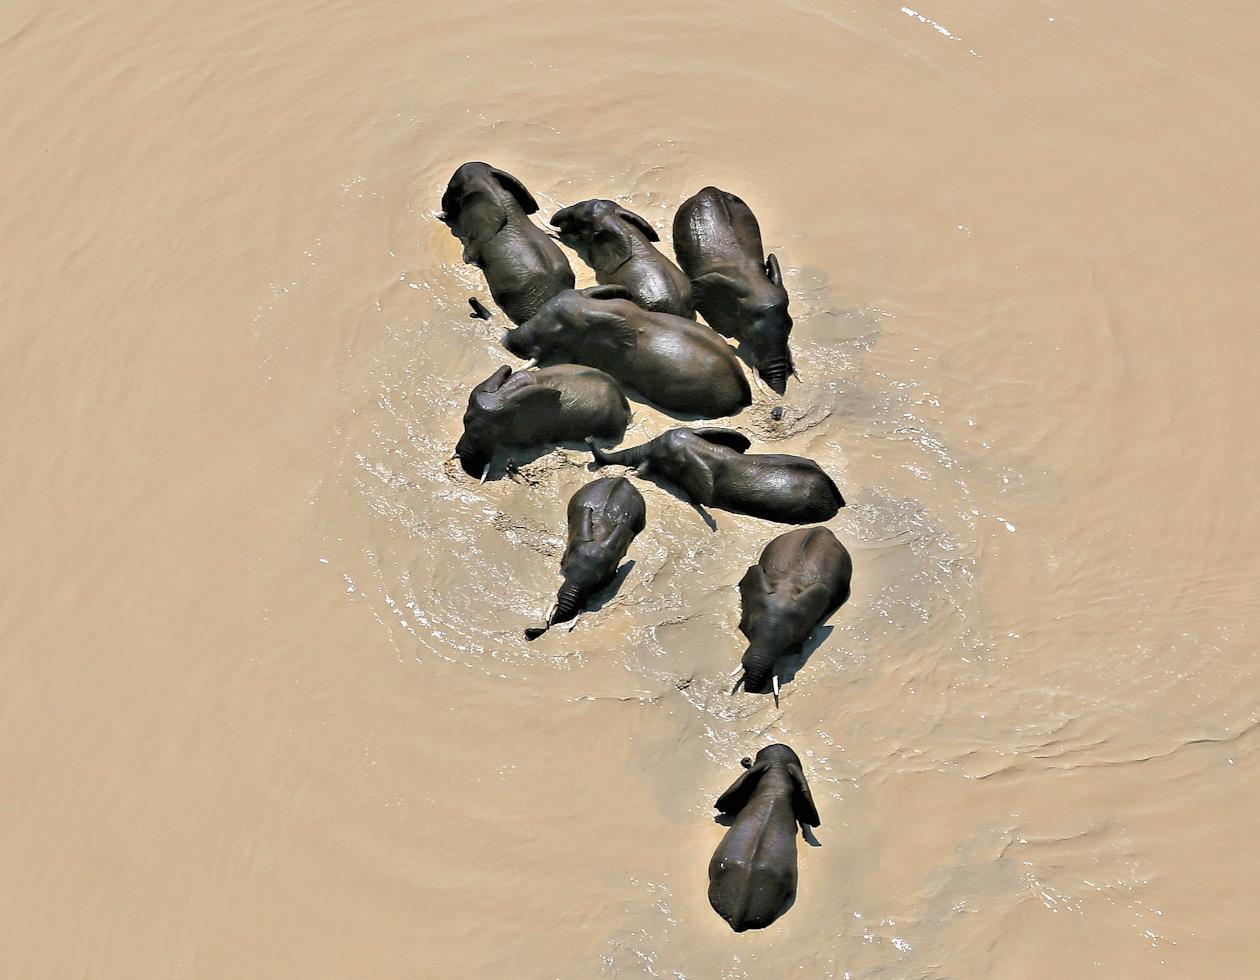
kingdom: Animalia
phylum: Chordata
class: Mammalia
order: Proboscidea
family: Elephantidae
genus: Loxodonta
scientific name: Loxodonta africana
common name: African elephant
